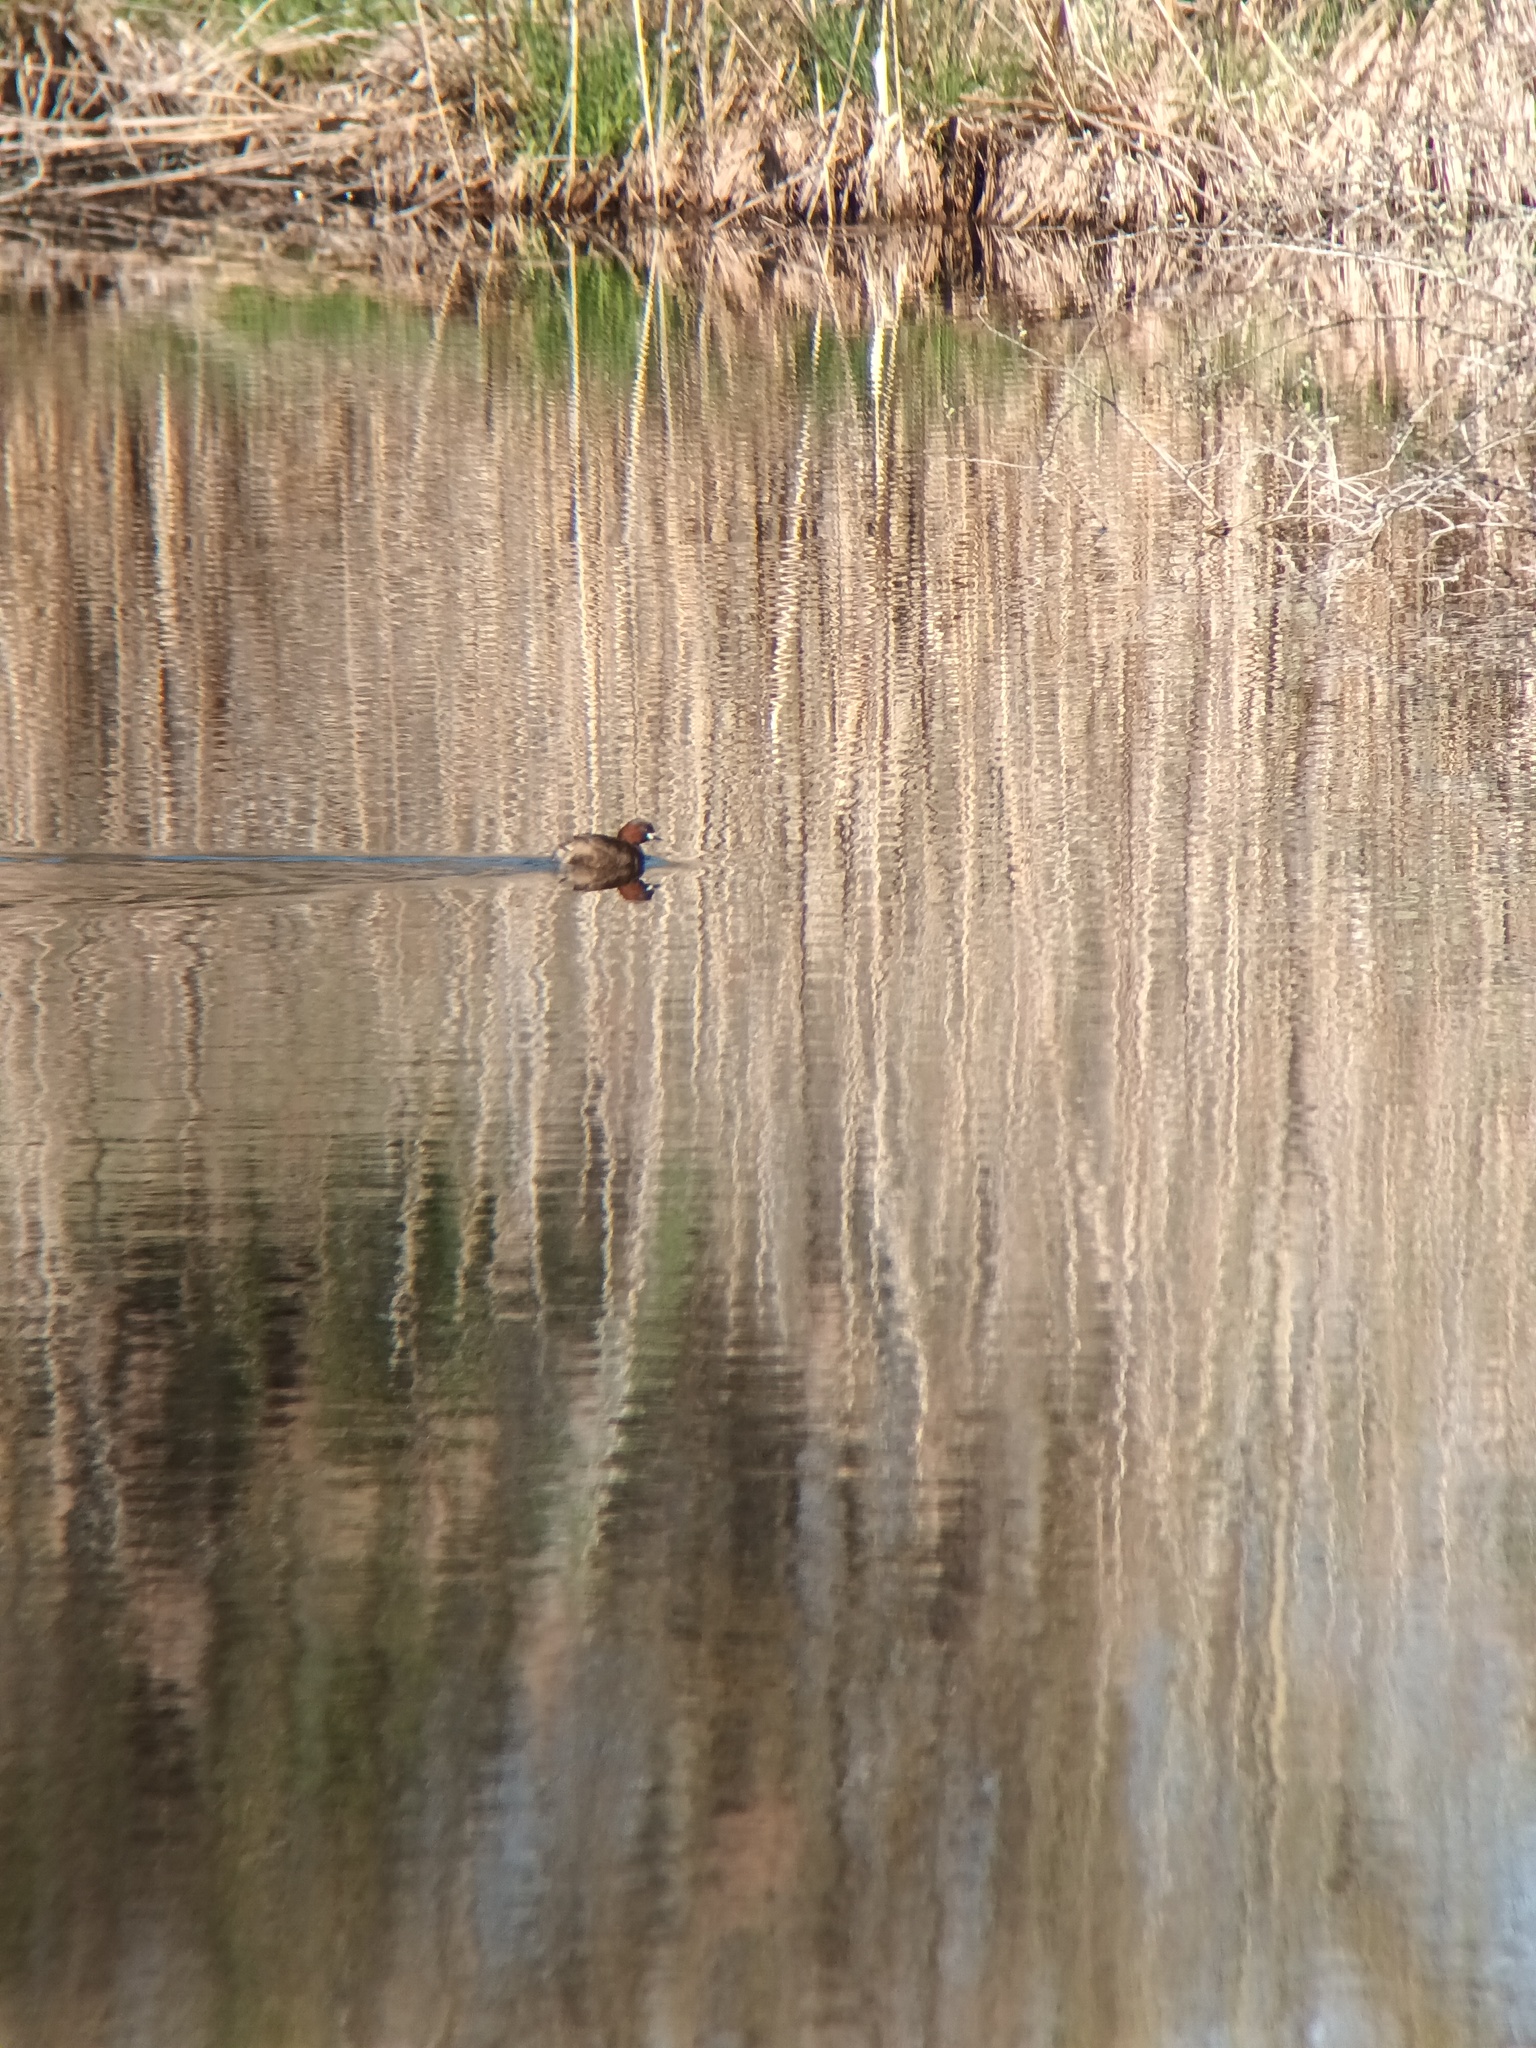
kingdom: Animalia
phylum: Chordata
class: Aves
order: Podicipediformes
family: Podicipedidae
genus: Tachybaptus
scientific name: Tachybaptus ruficollis
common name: Little grebe
